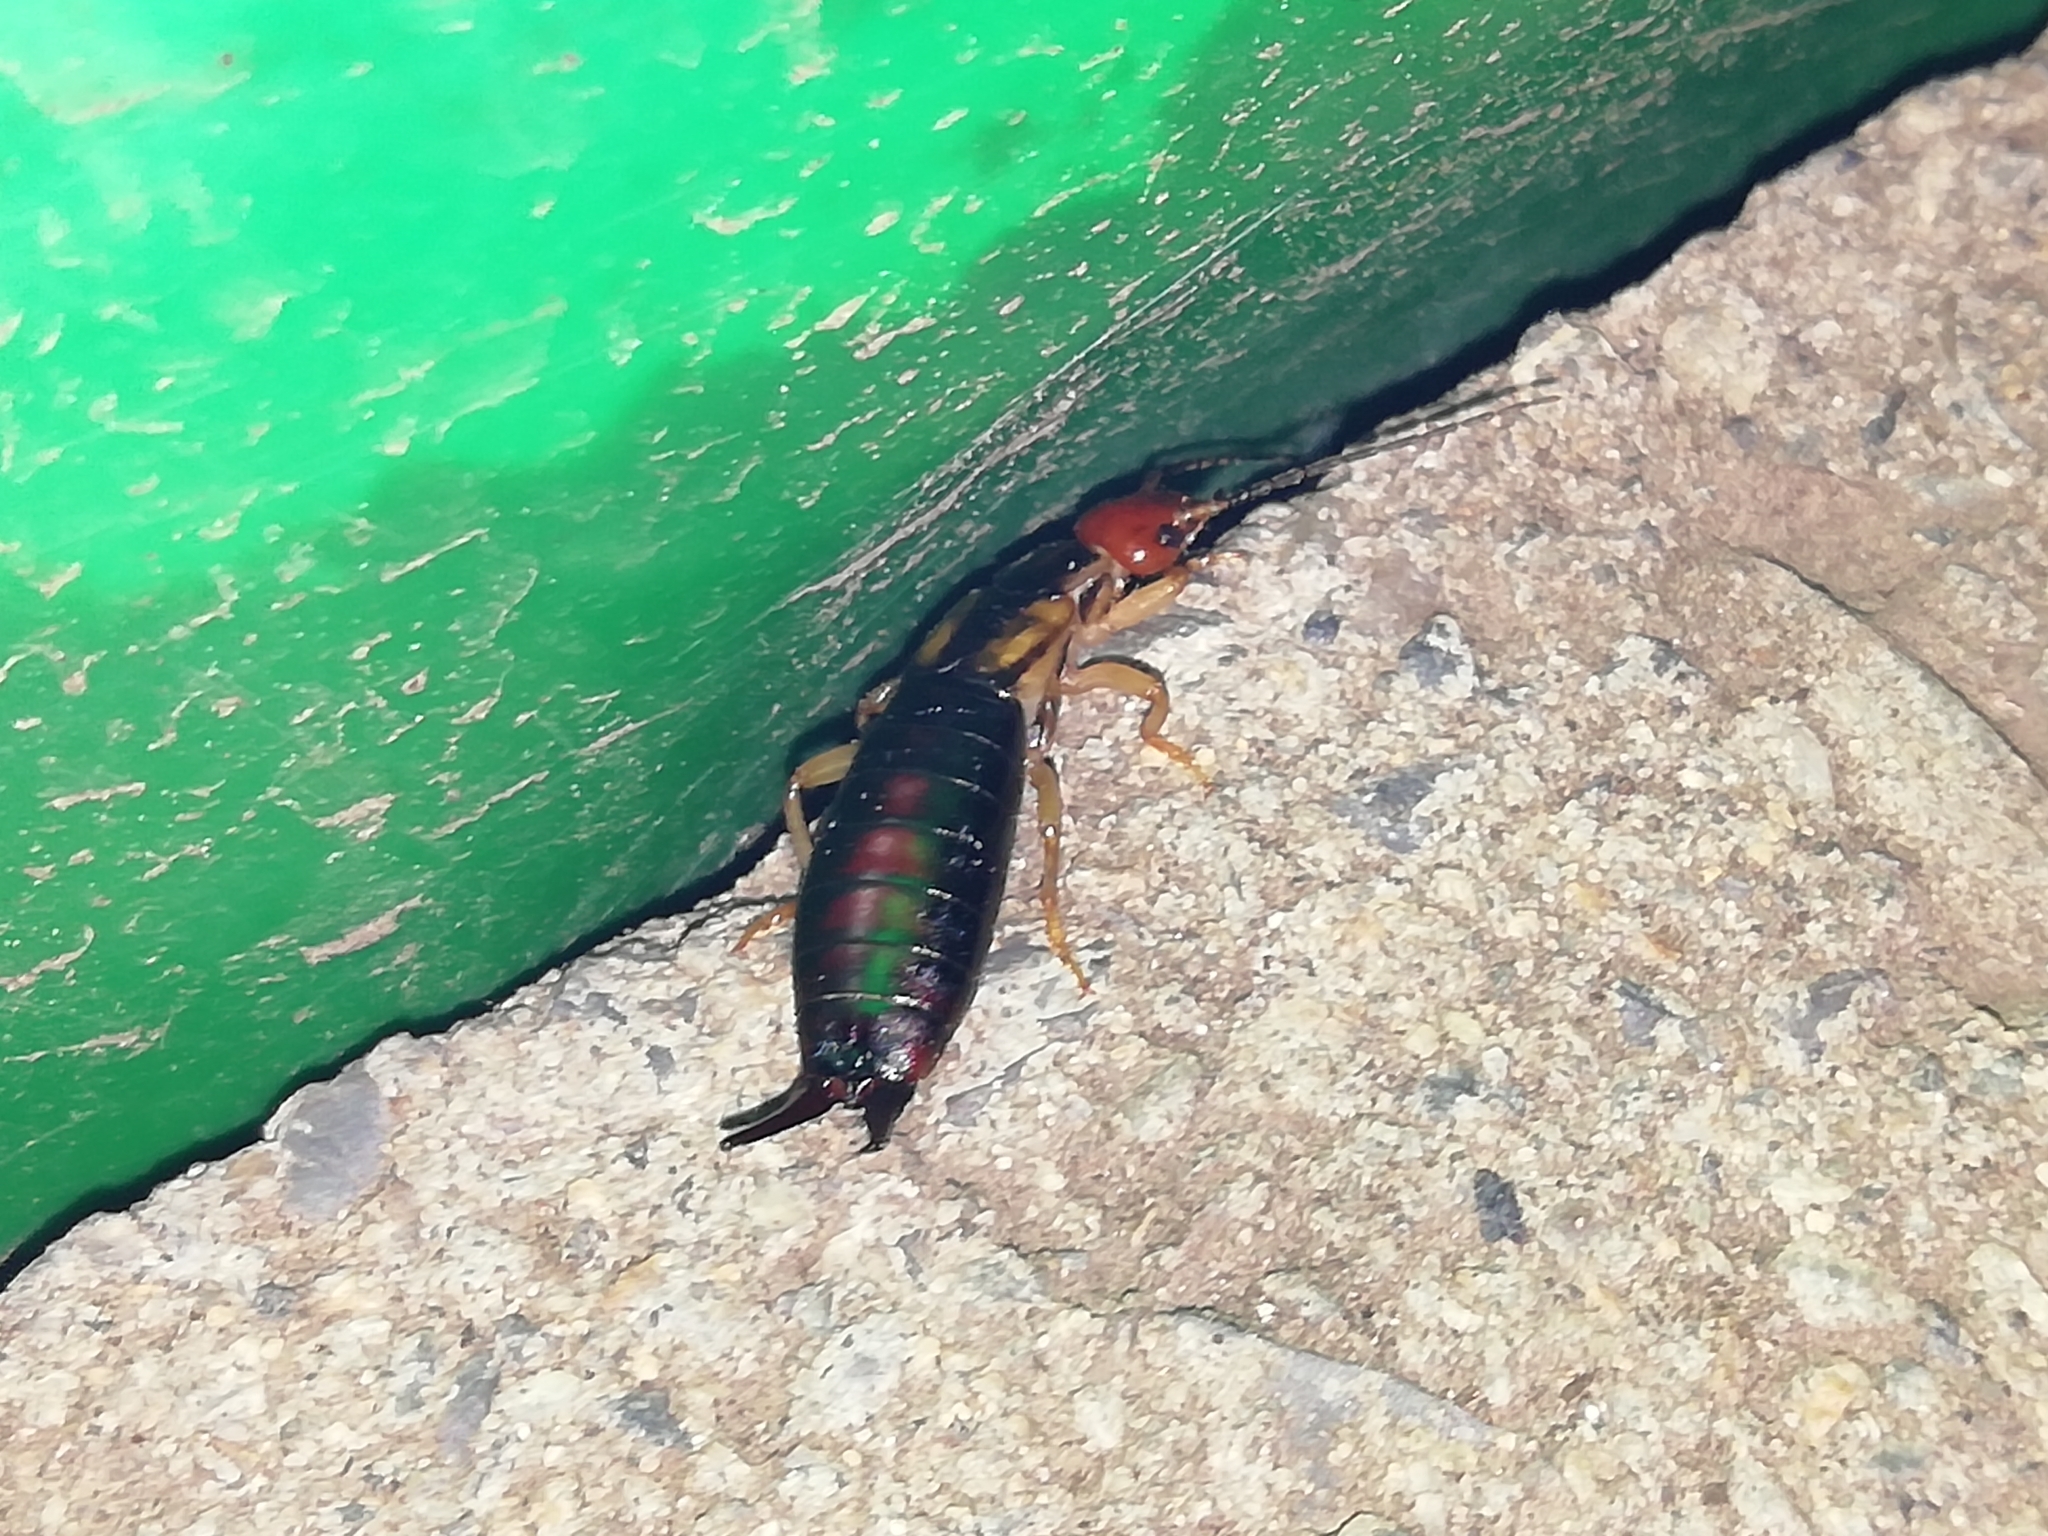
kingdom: Animalia
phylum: Arthropoda
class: Insecta
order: Dermaptera
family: Forficulidae
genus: Forficula
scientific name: Forficula tomis
